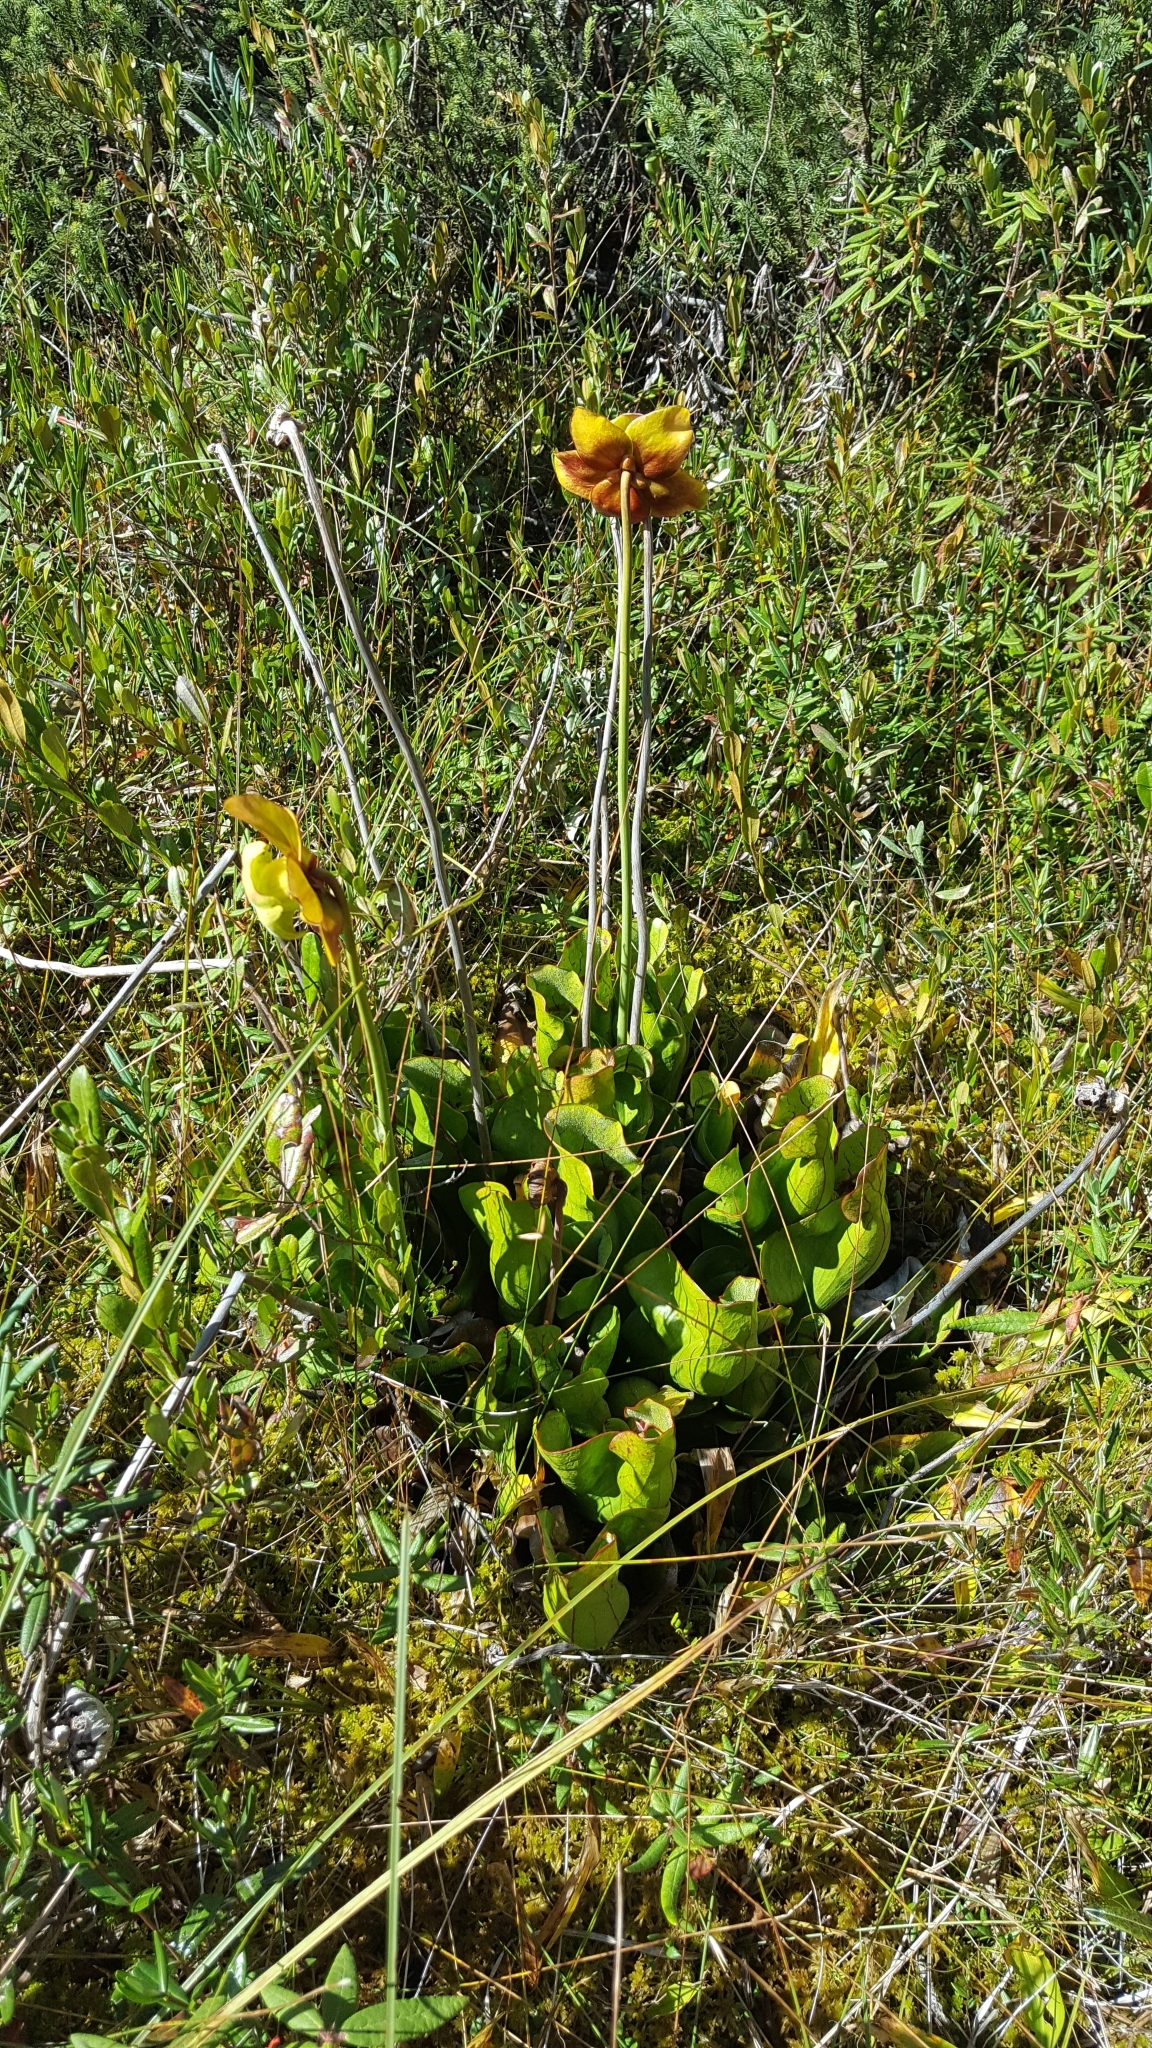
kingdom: Plantae
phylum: Tracheophyta
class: Magnoliopsida
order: Ericales
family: Sarraceniaceae
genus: Sarracenia
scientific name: Sarracenia purpurea
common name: Pitcherplant
